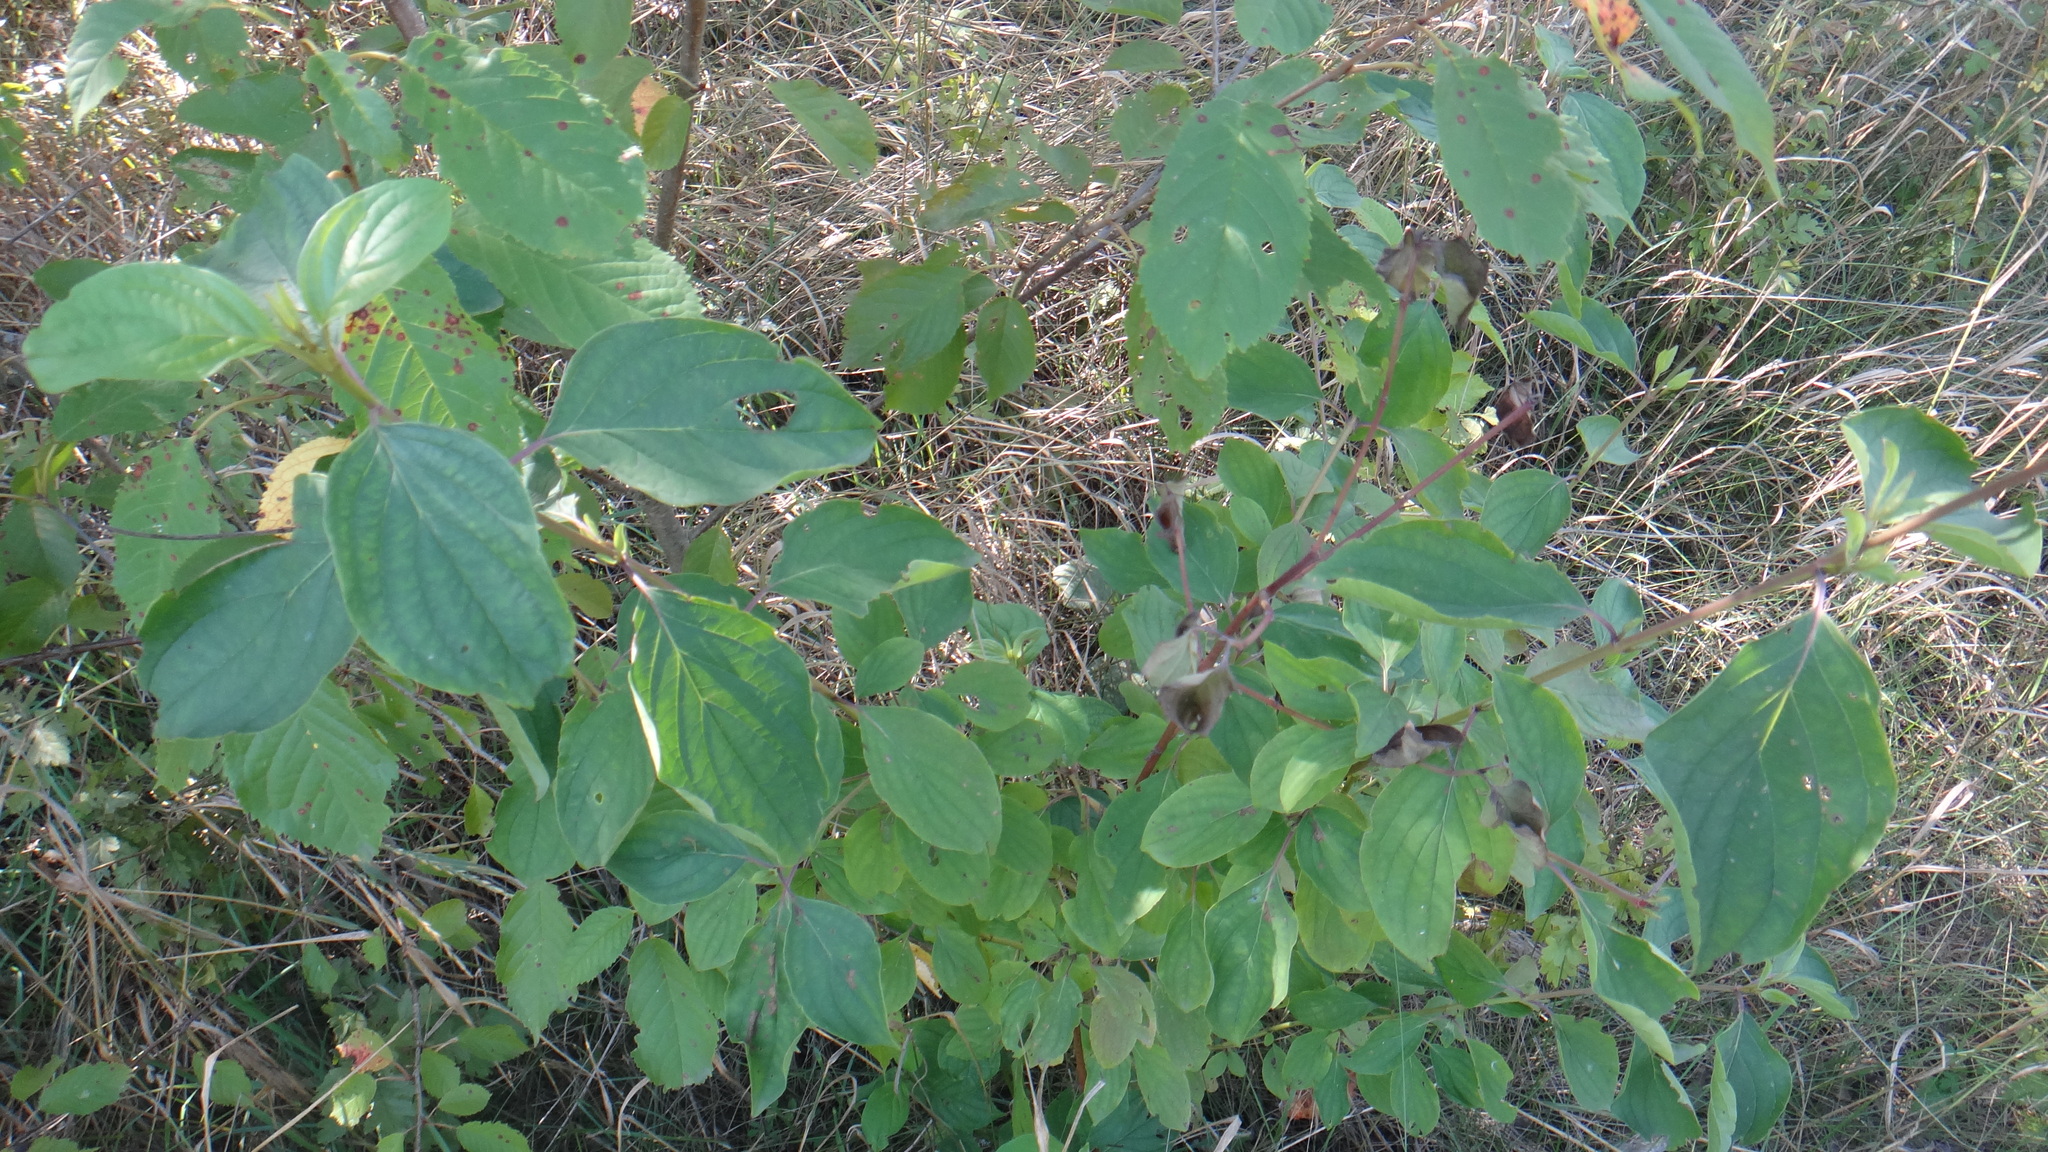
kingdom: Plantae
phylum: Tracheophyta
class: Magnoliopsida
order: Cornales
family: Cornaceae
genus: Cornus
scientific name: Cornus sanguinea
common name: Dogwood
